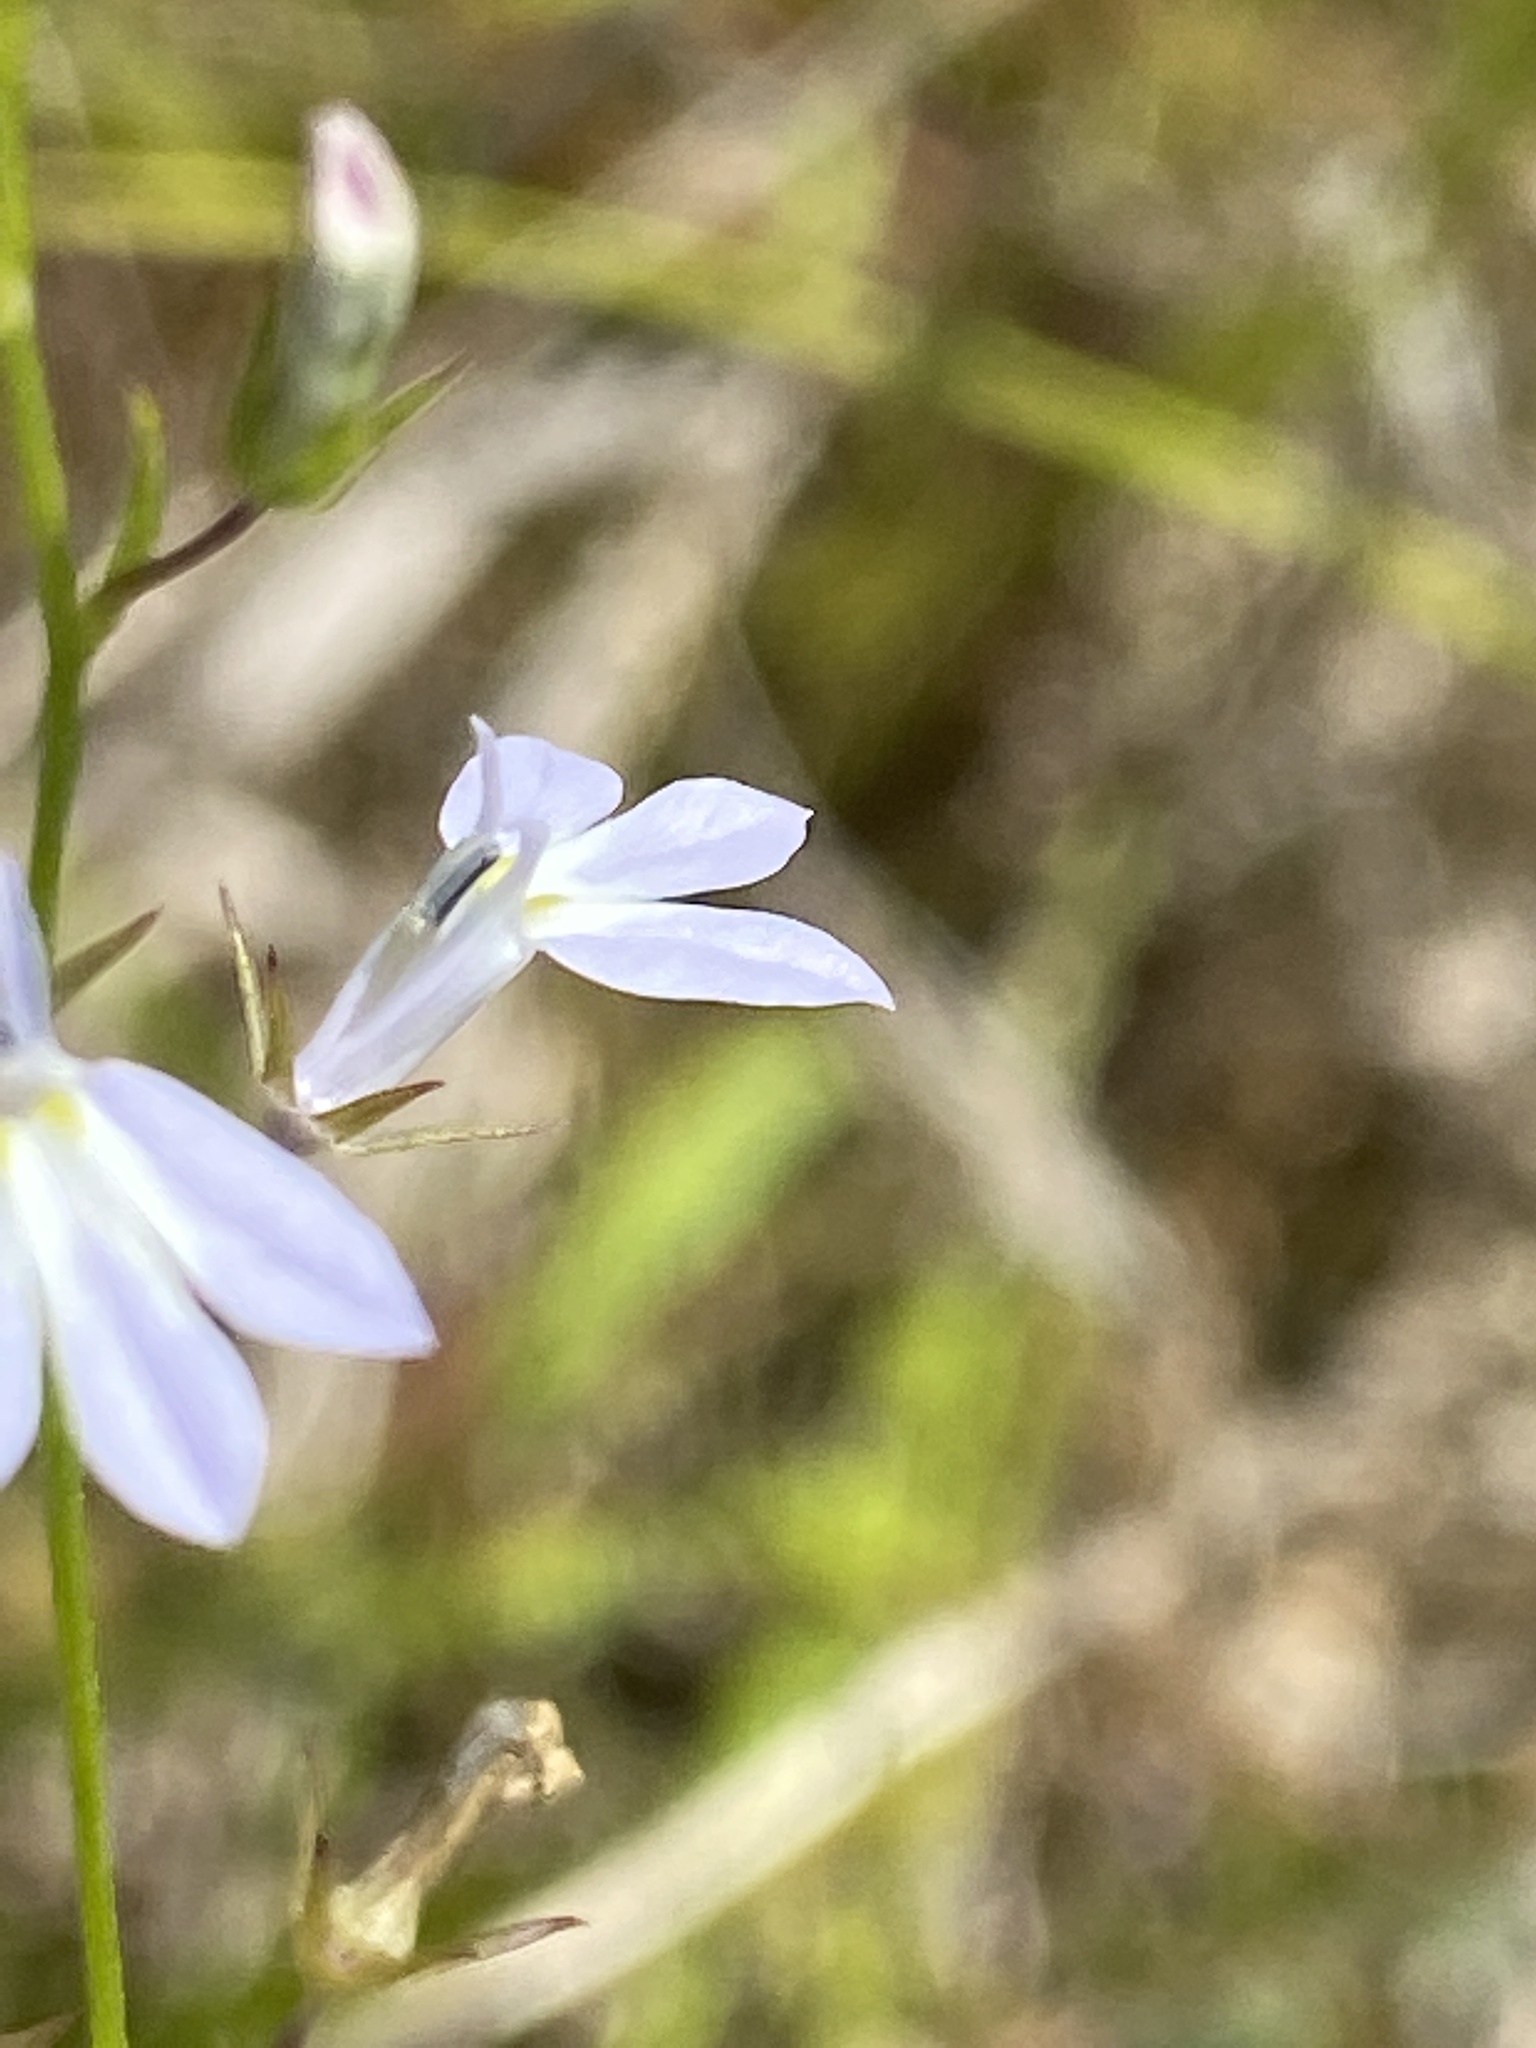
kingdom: Plantae
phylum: Tracheophyta
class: Magnoliopsida
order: Asterales
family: Campanulaceae
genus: Lobelia
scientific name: Lobelia nuttallii
